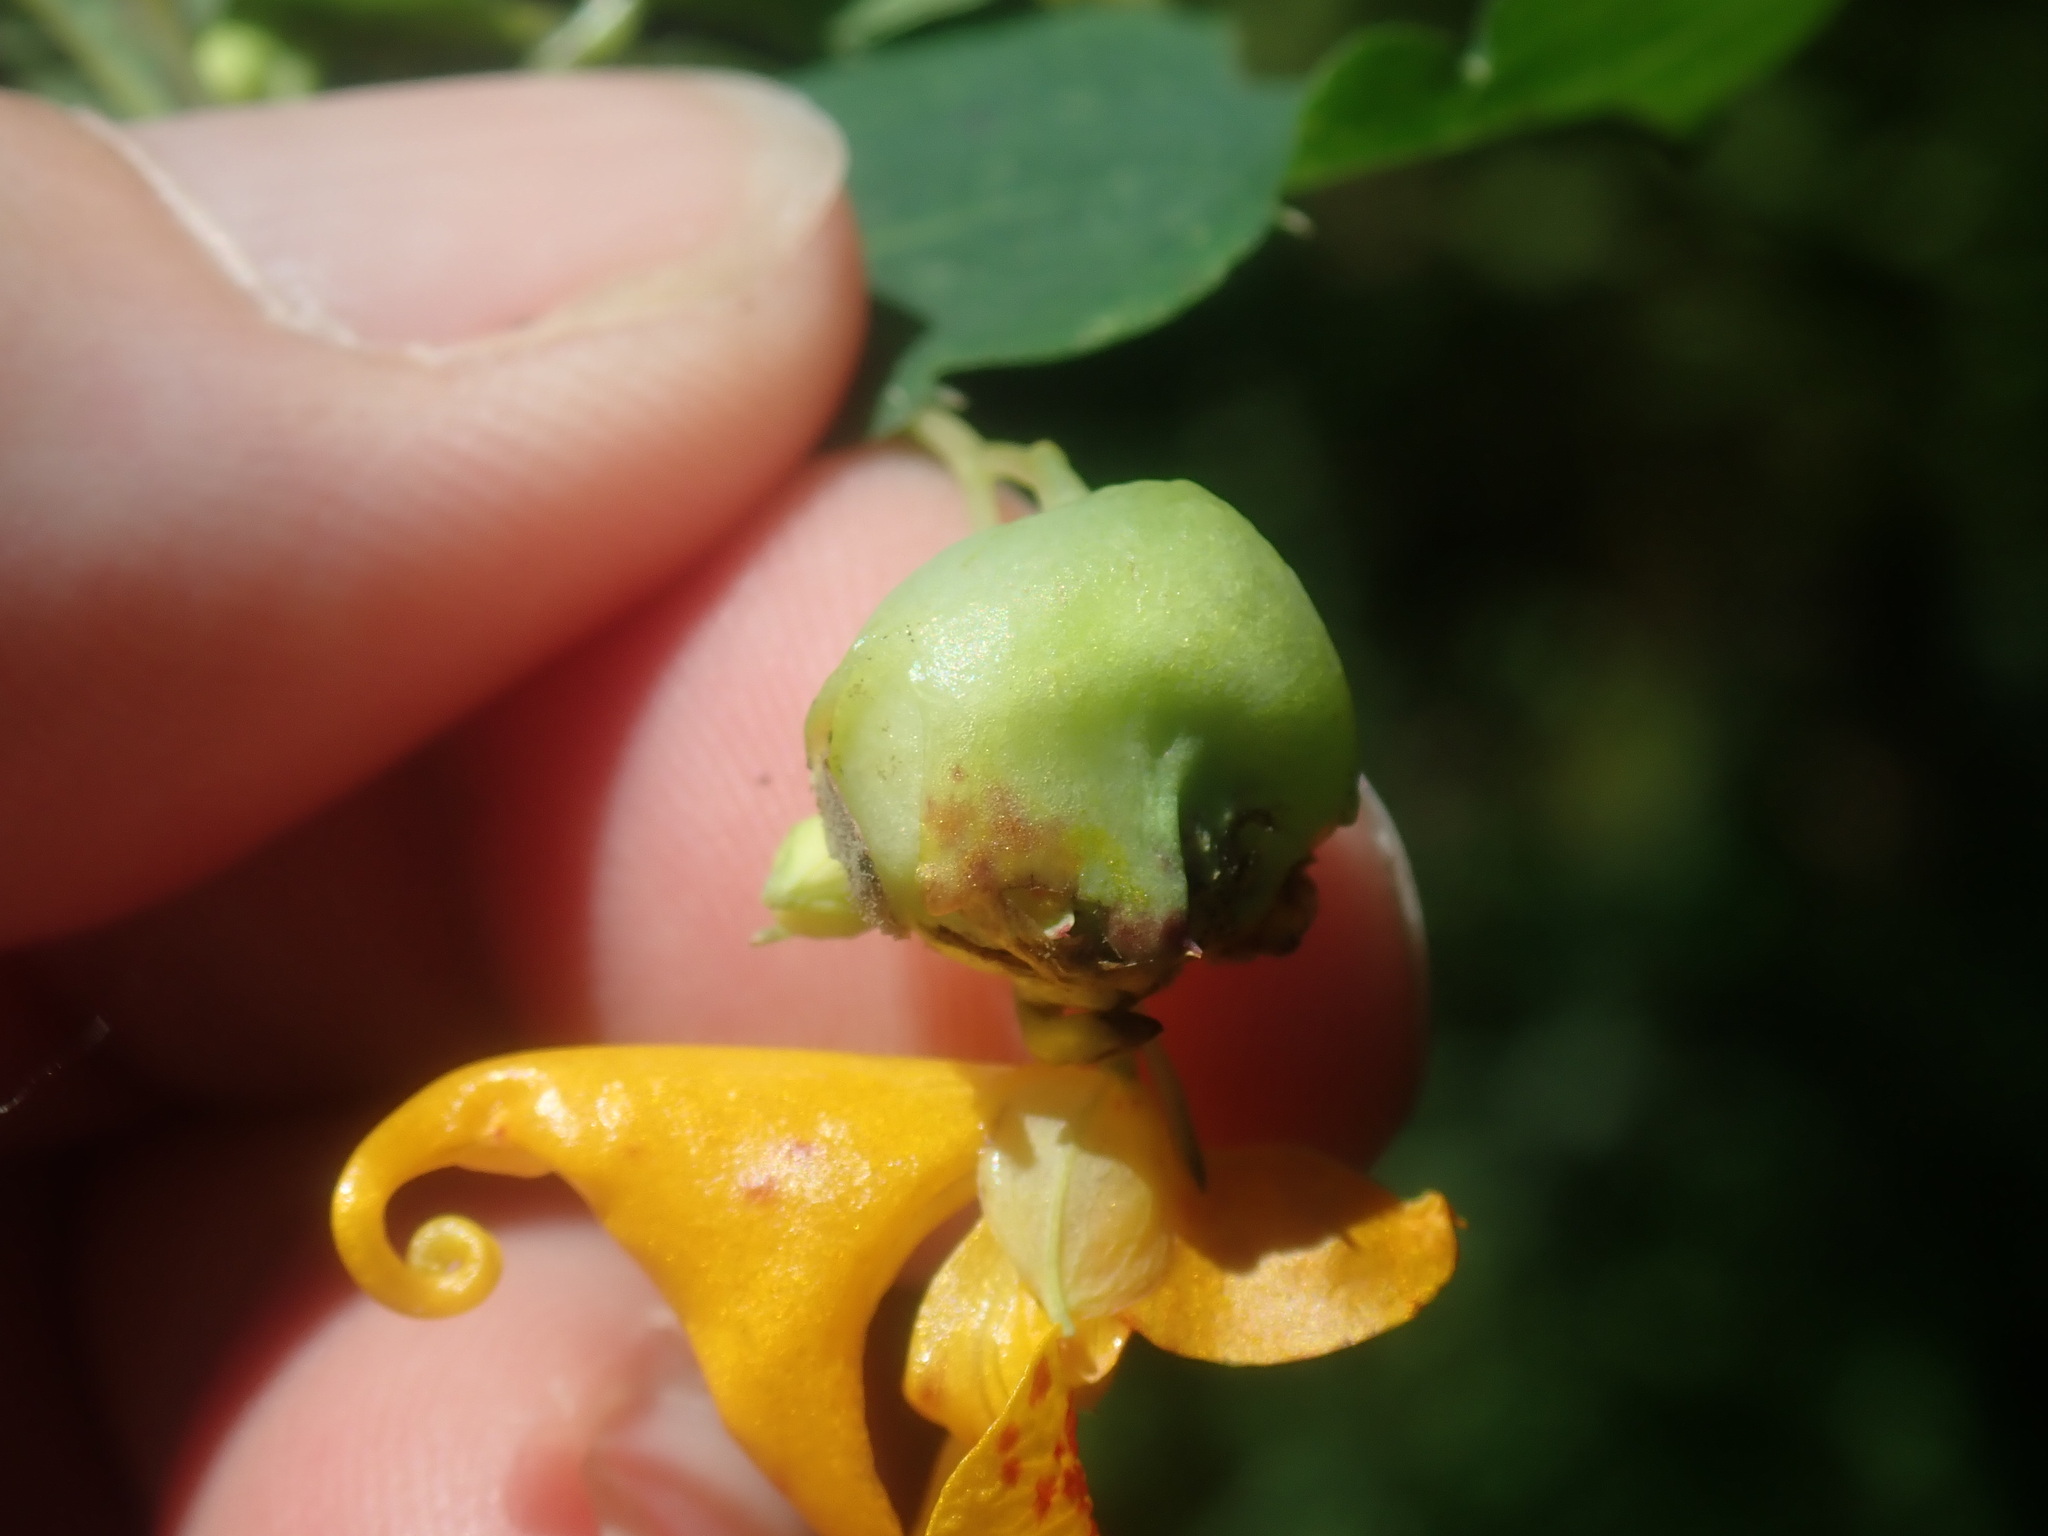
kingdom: Animalia
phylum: Arthropoda
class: Insecta
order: Diptera
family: Cecidomyiidae
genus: Schizomyia
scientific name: Schizomyia impatientis
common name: Jewelweed gall midge
